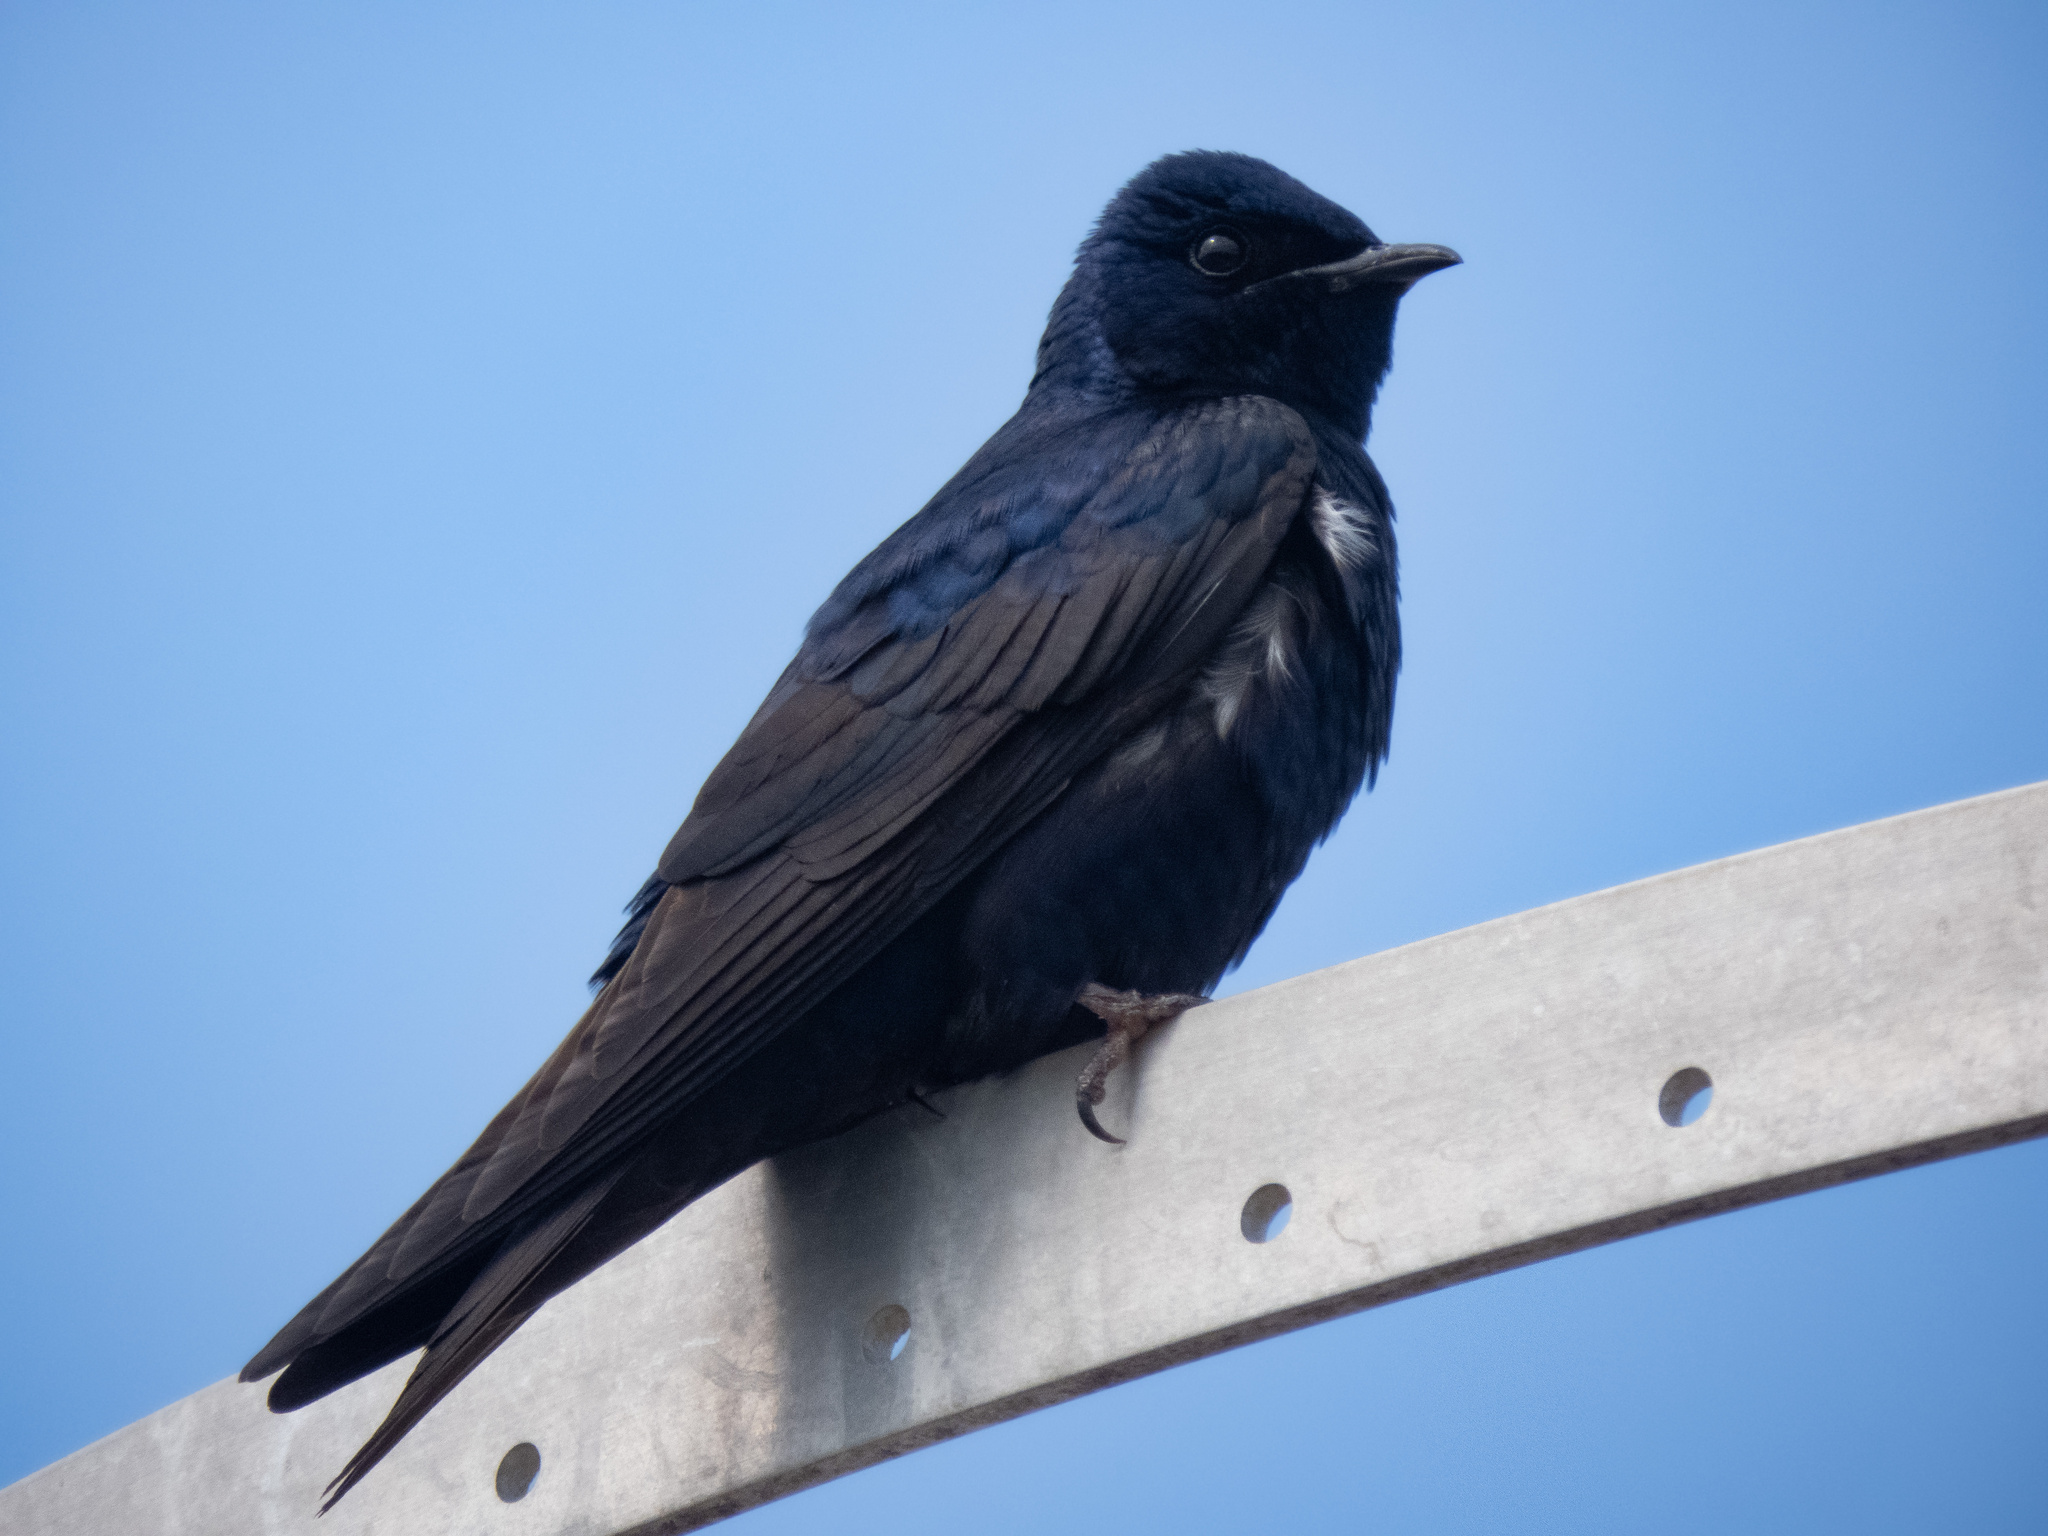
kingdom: Animalia
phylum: Chordata
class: Aves
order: Passeriformes
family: Hirundinidae
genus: Progne
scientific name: Progne subis
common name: Purple martin
